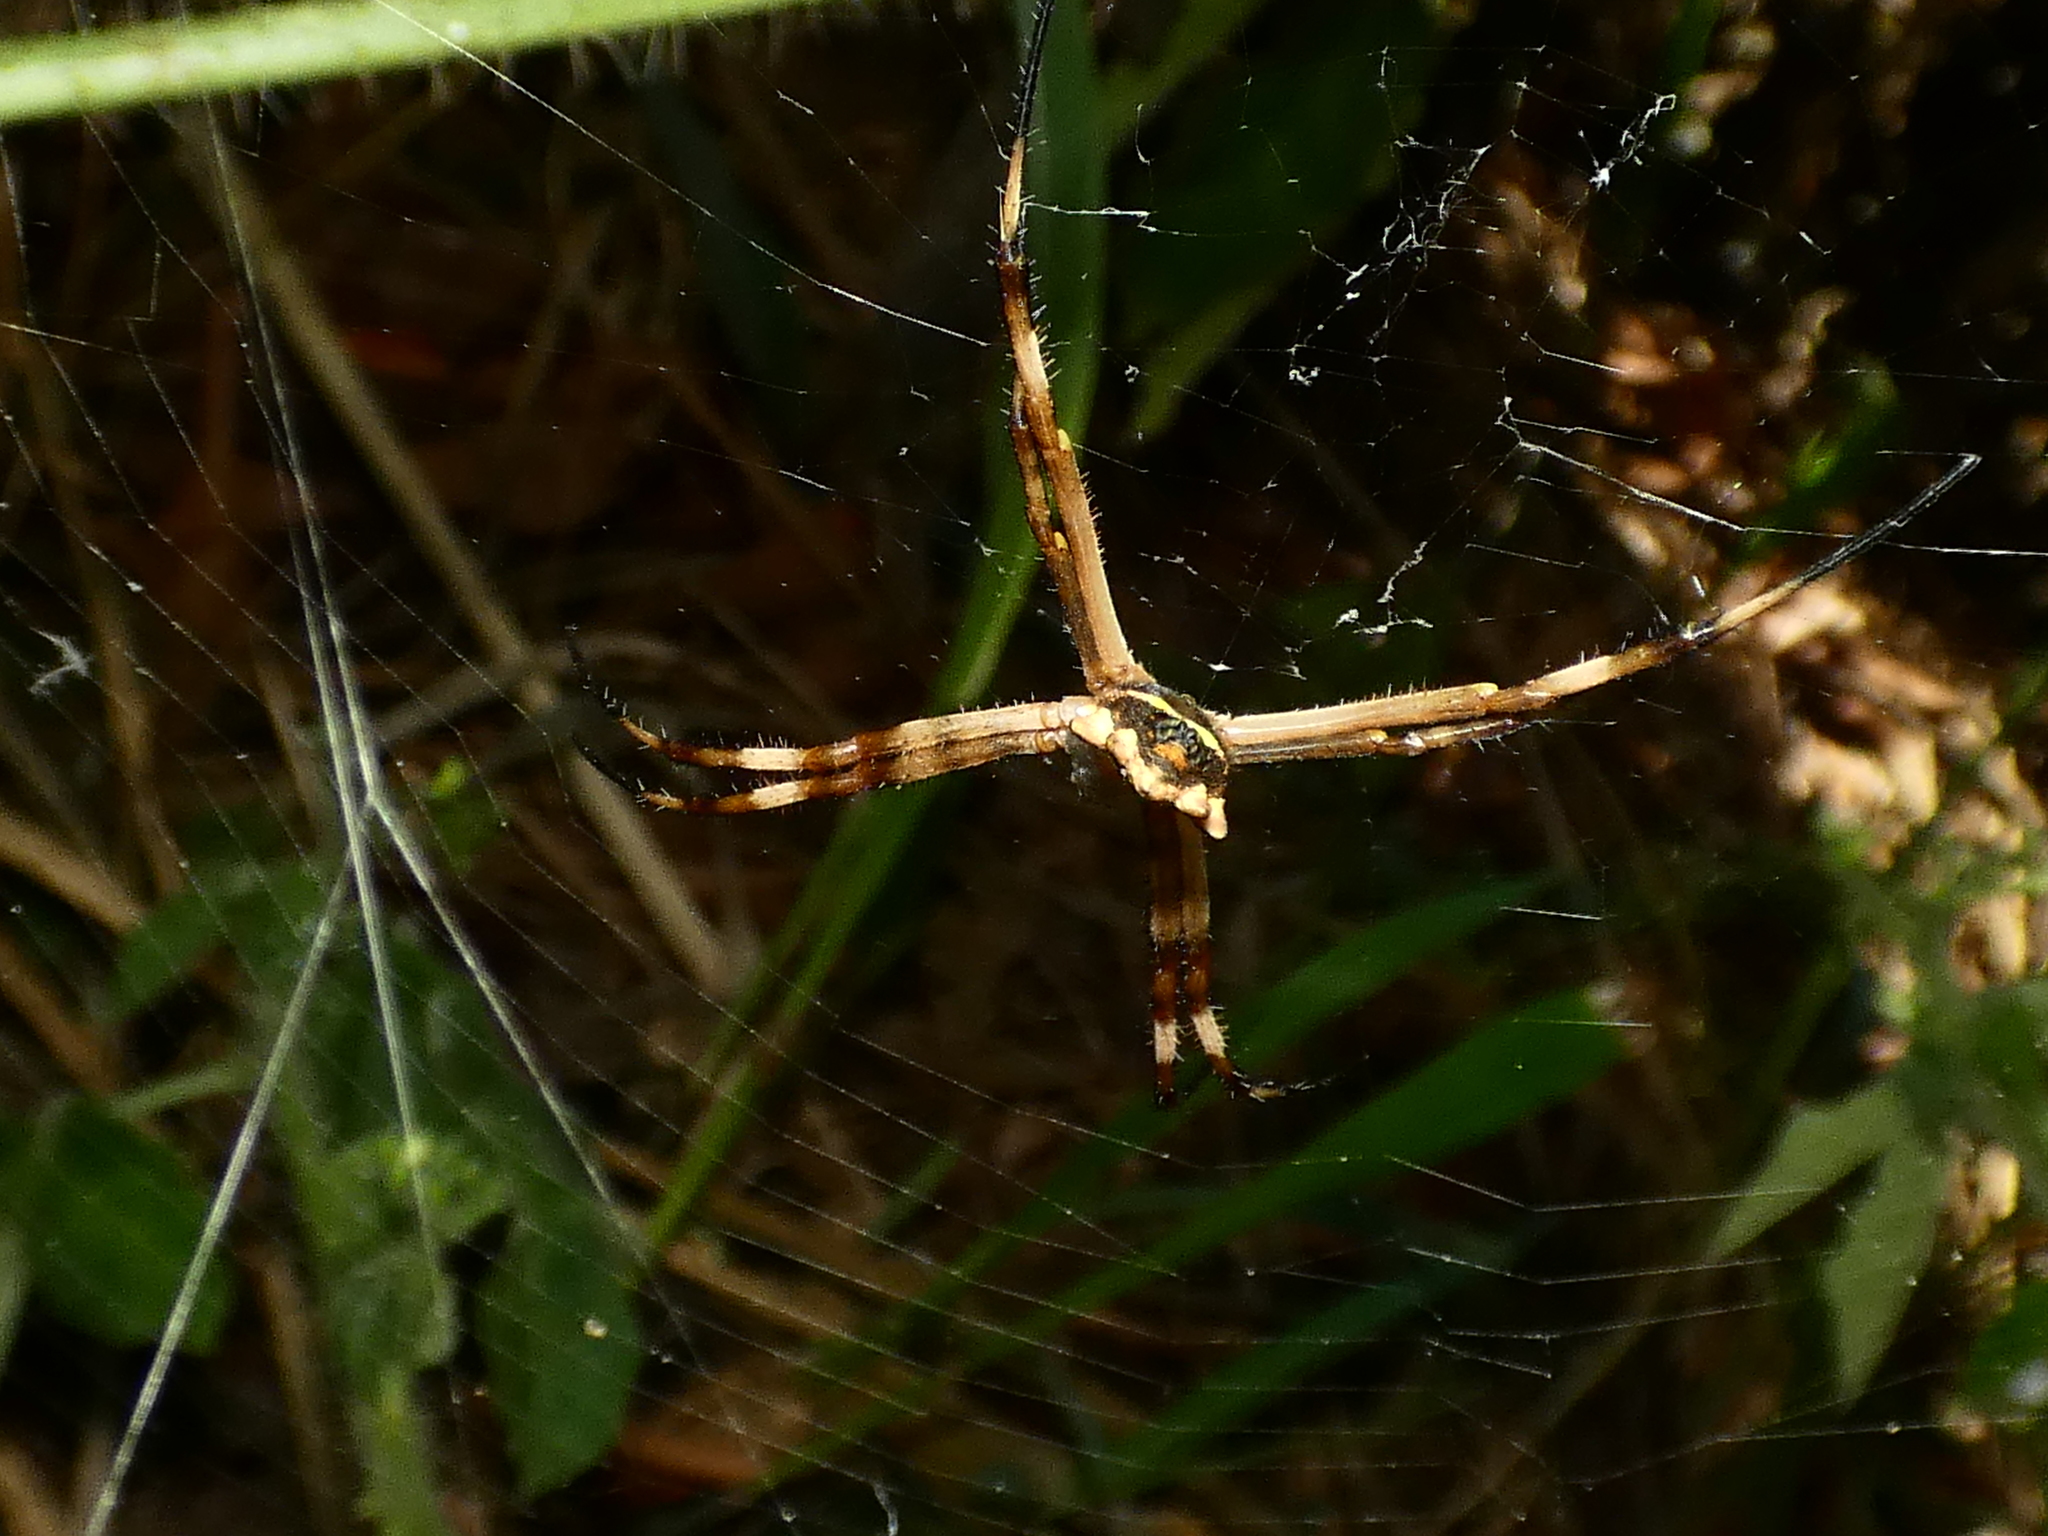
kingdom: Animalia
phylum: Arthropoda
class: Arachnida
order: Araneae
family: Araneidae
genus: Argiope
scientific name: Argiope argentata
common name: Orb weavers
